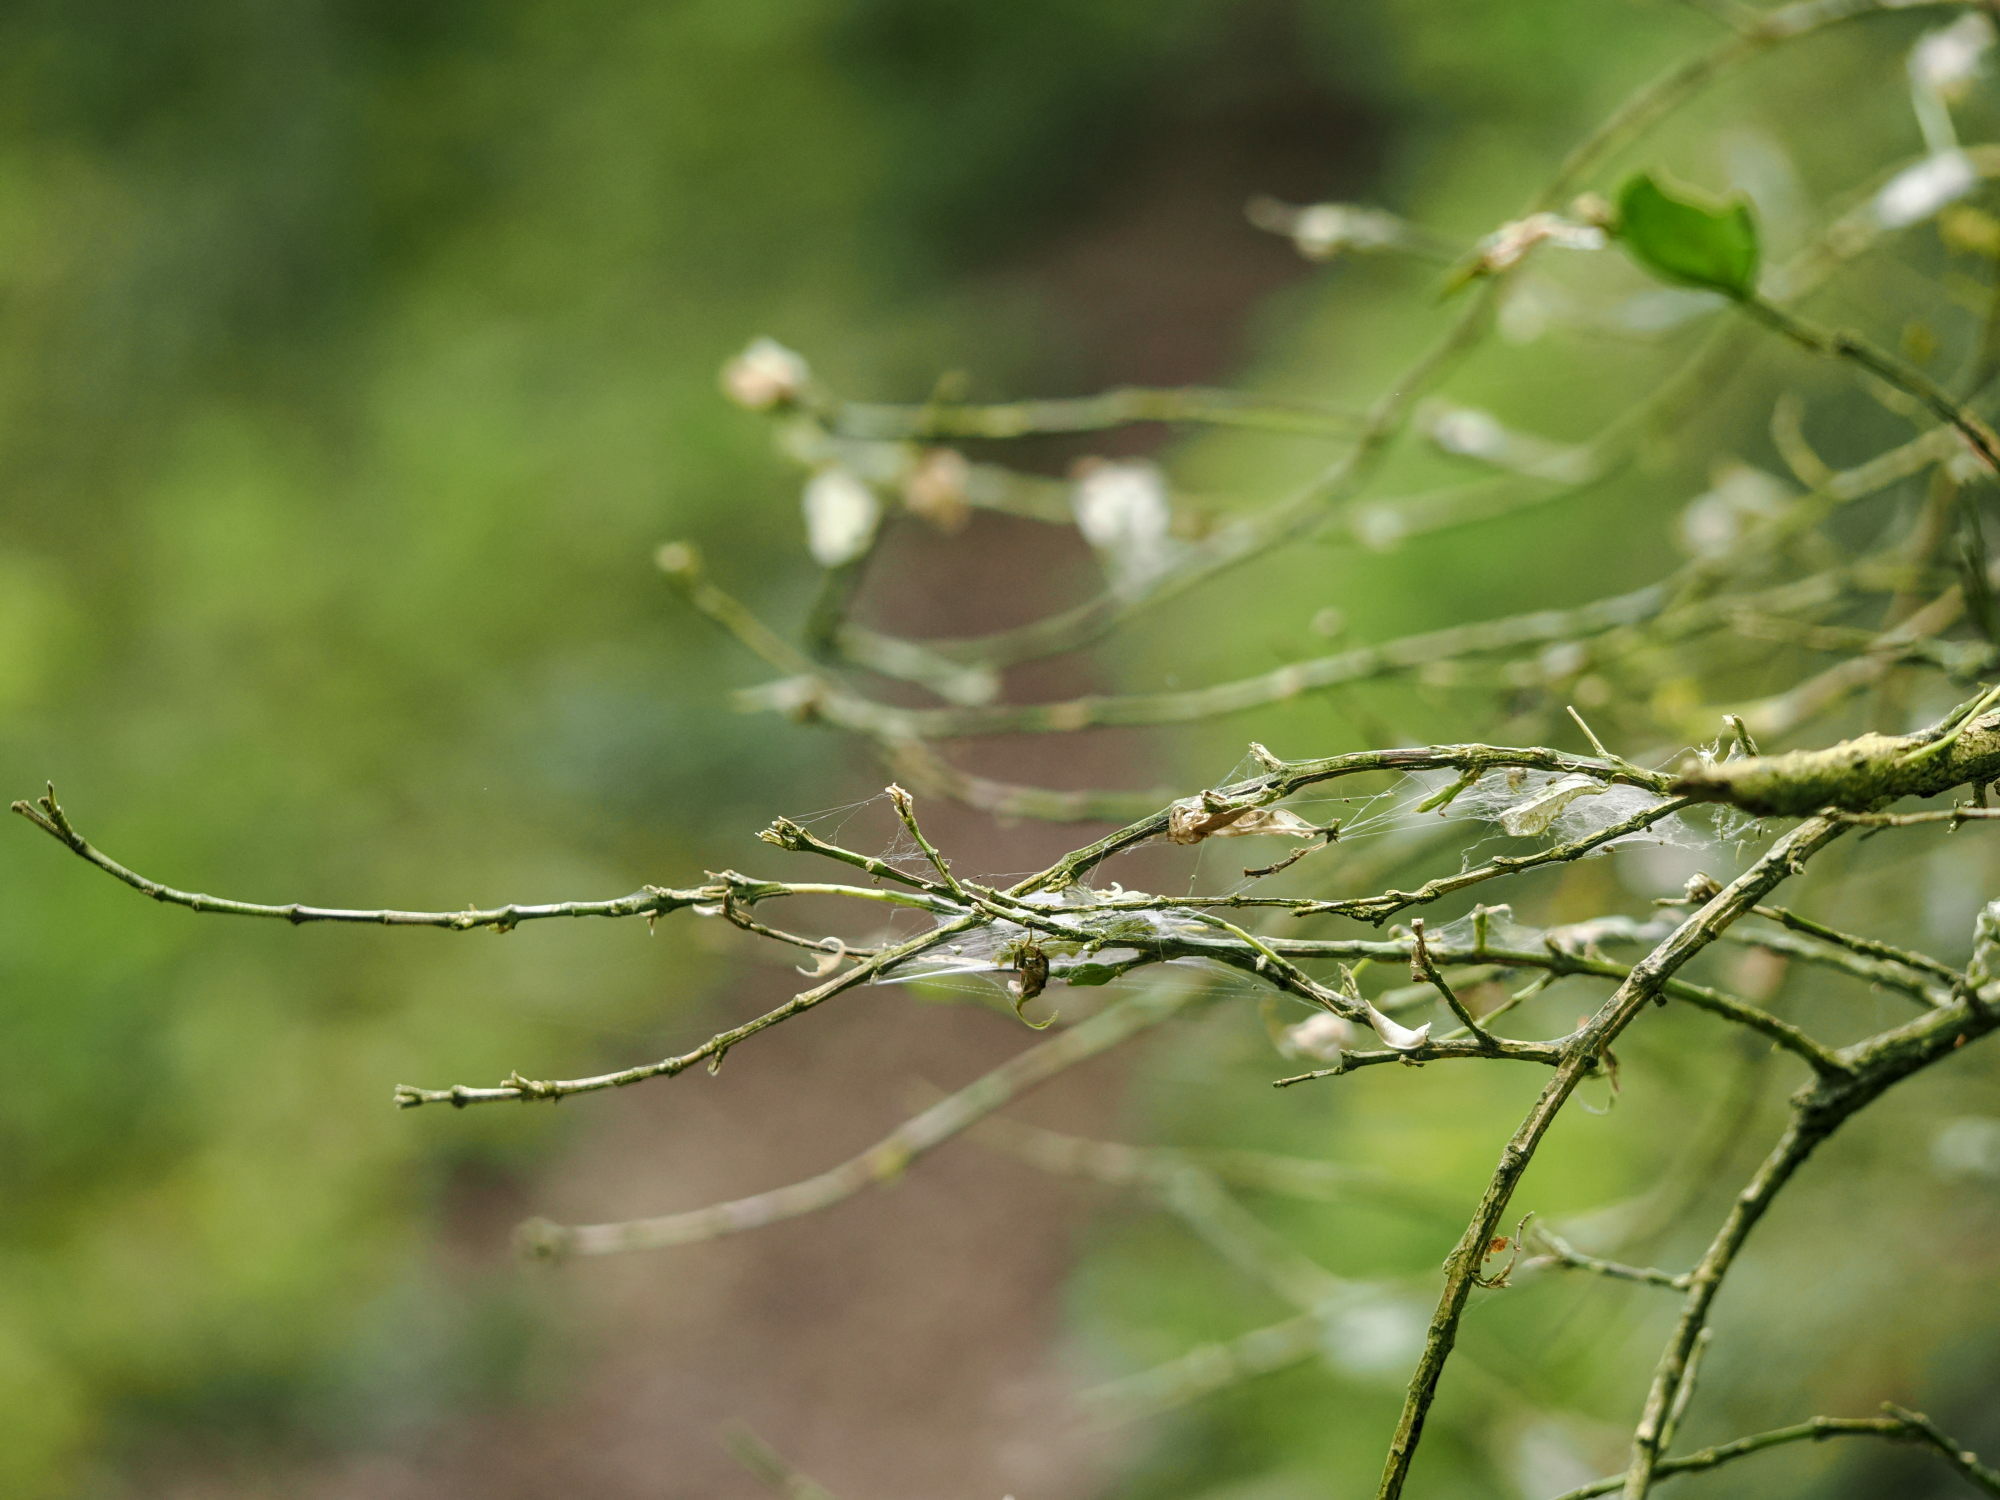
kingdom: Animalia
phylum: Arthropoda
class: Insecta
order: Lepidoptera
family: Crambidae
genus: Cydalima
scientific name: Cydalima perspectalis
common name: Box tree moth
